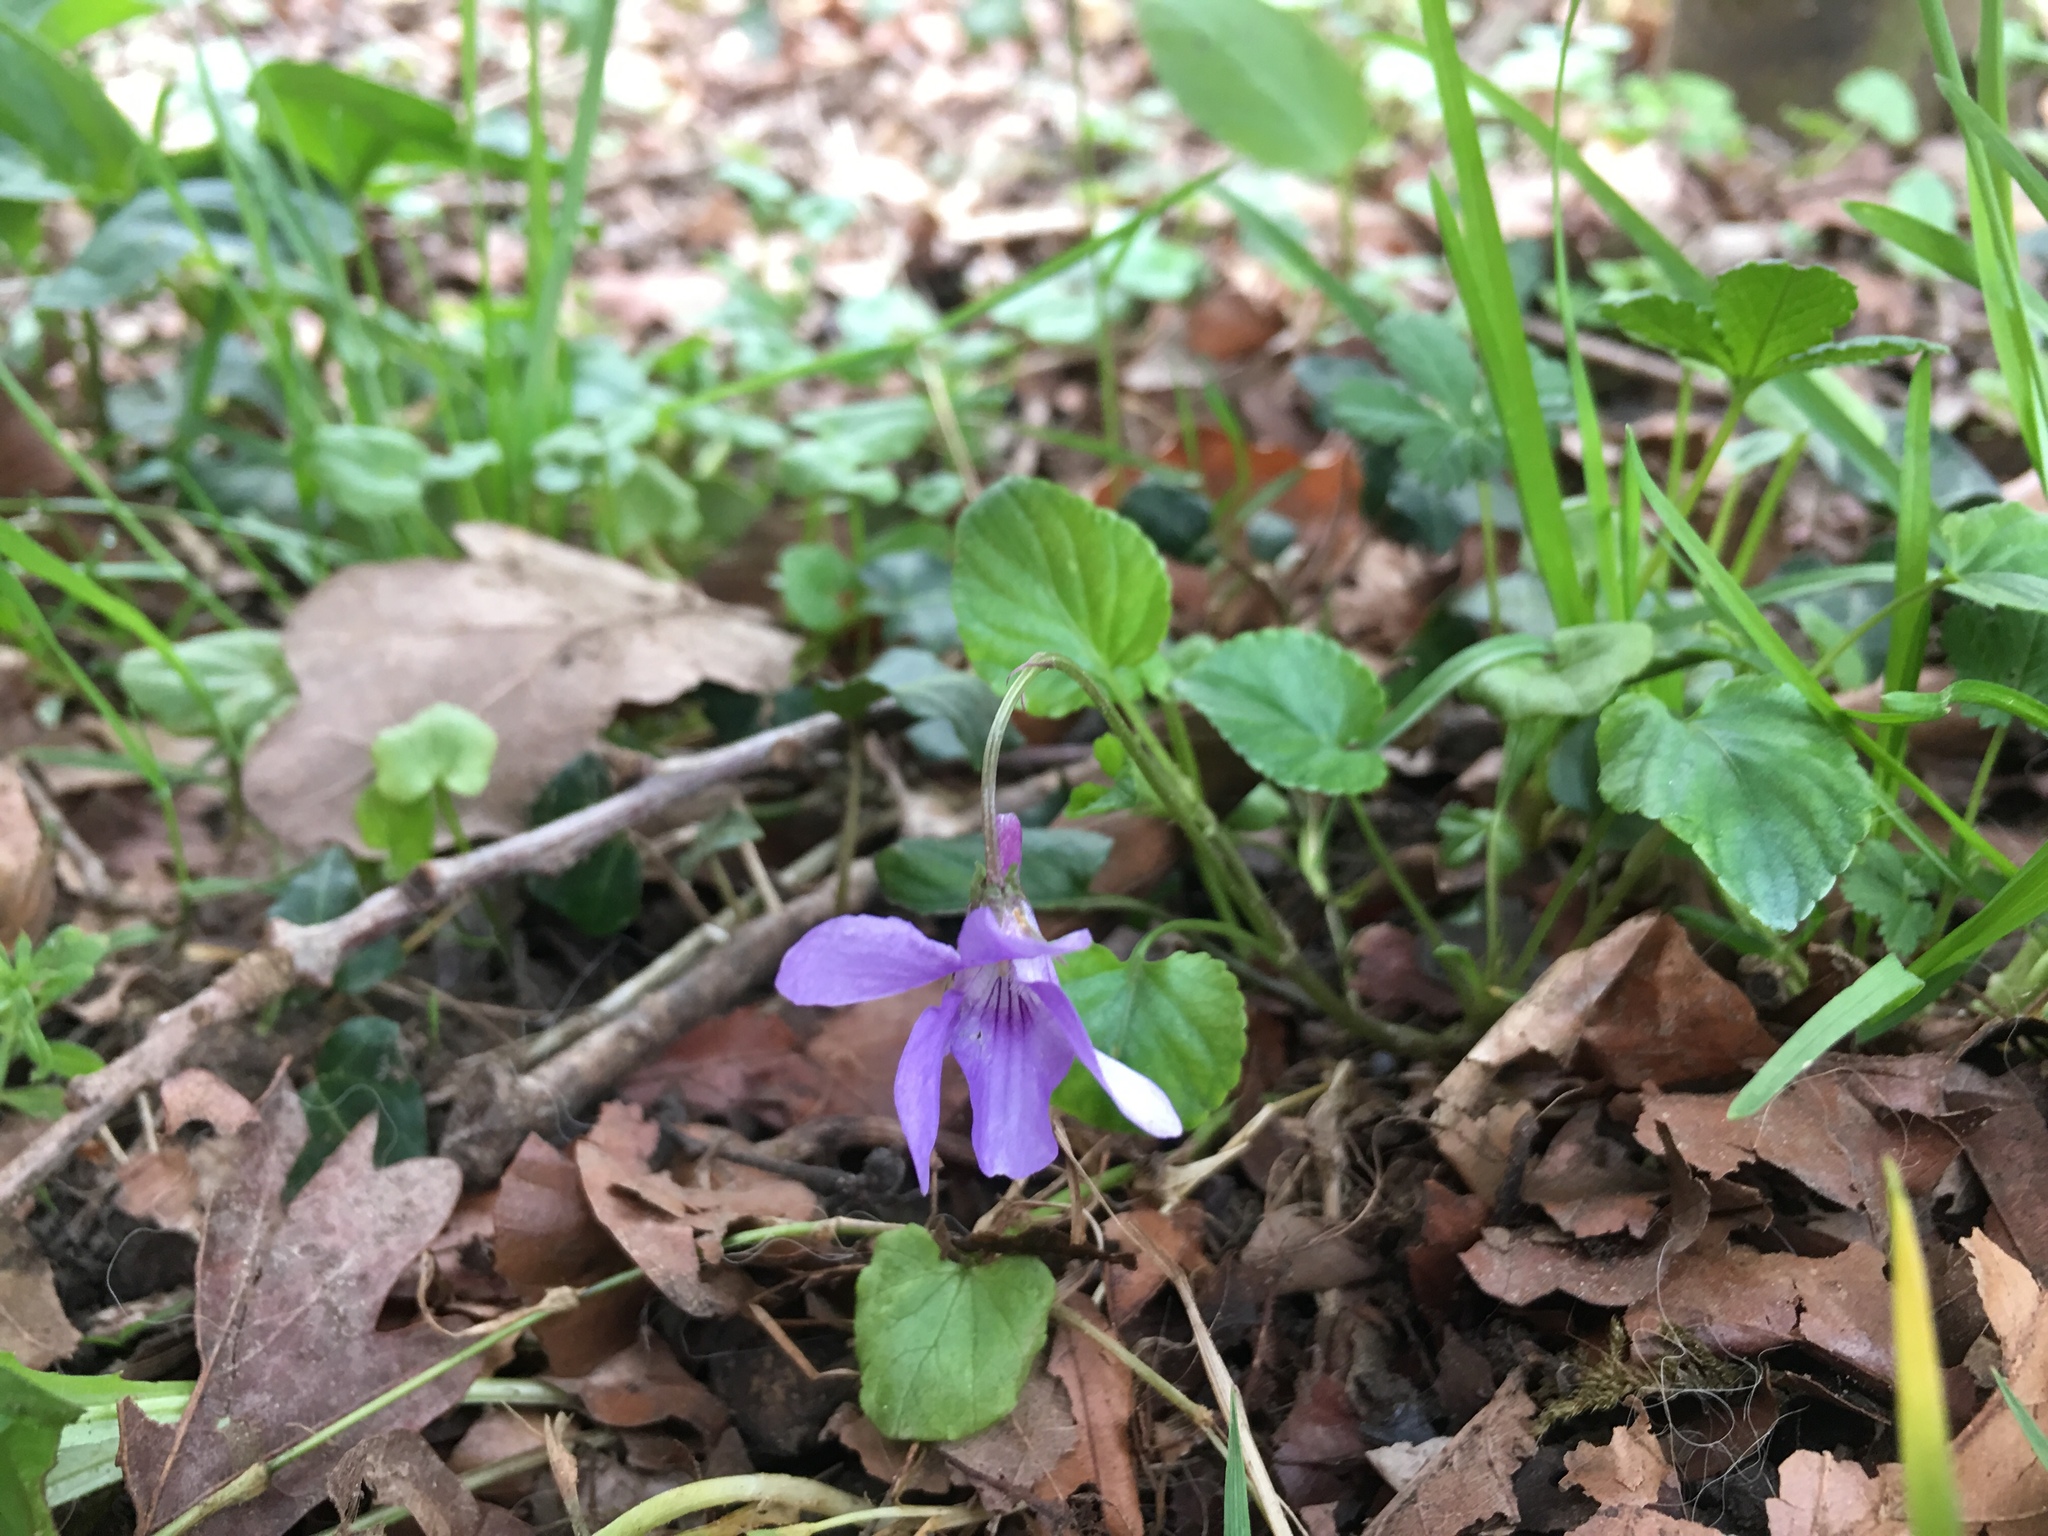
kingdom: Plantae
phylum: Tracheophyta
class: Magnoliopsida
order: Malpighiales
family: Violaceae
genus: Viola
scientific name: Viola reichenbachiana
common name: Early dog-violet
